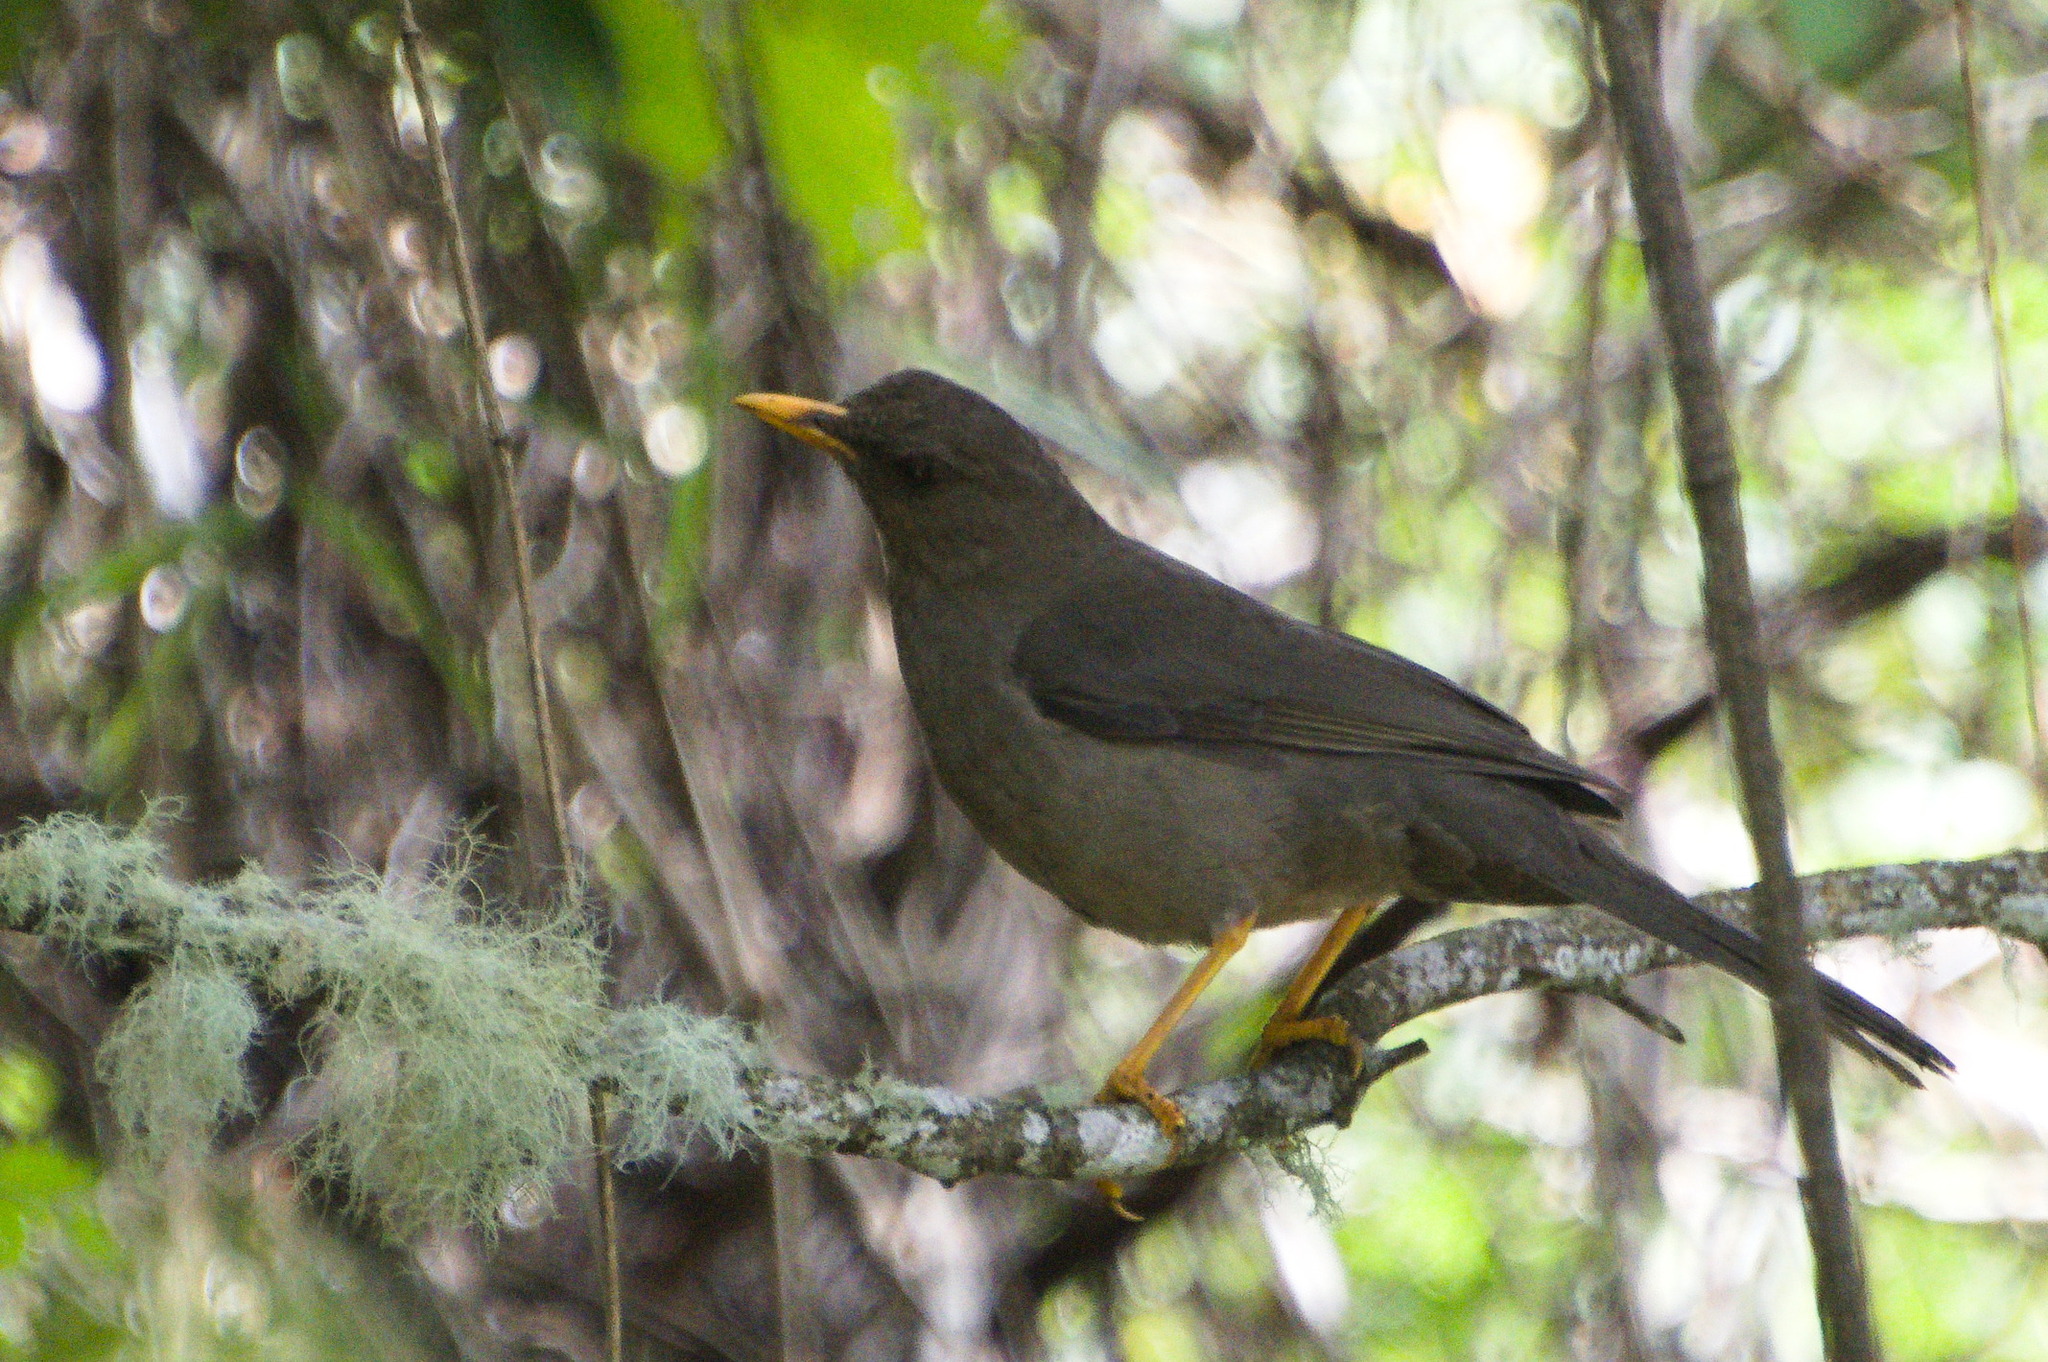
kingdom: Animalia
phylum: Chordata
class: Aves
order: Passeriformes
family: Turdidae
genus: Turdus
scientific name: Turdus fuscater
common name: Great thrush
